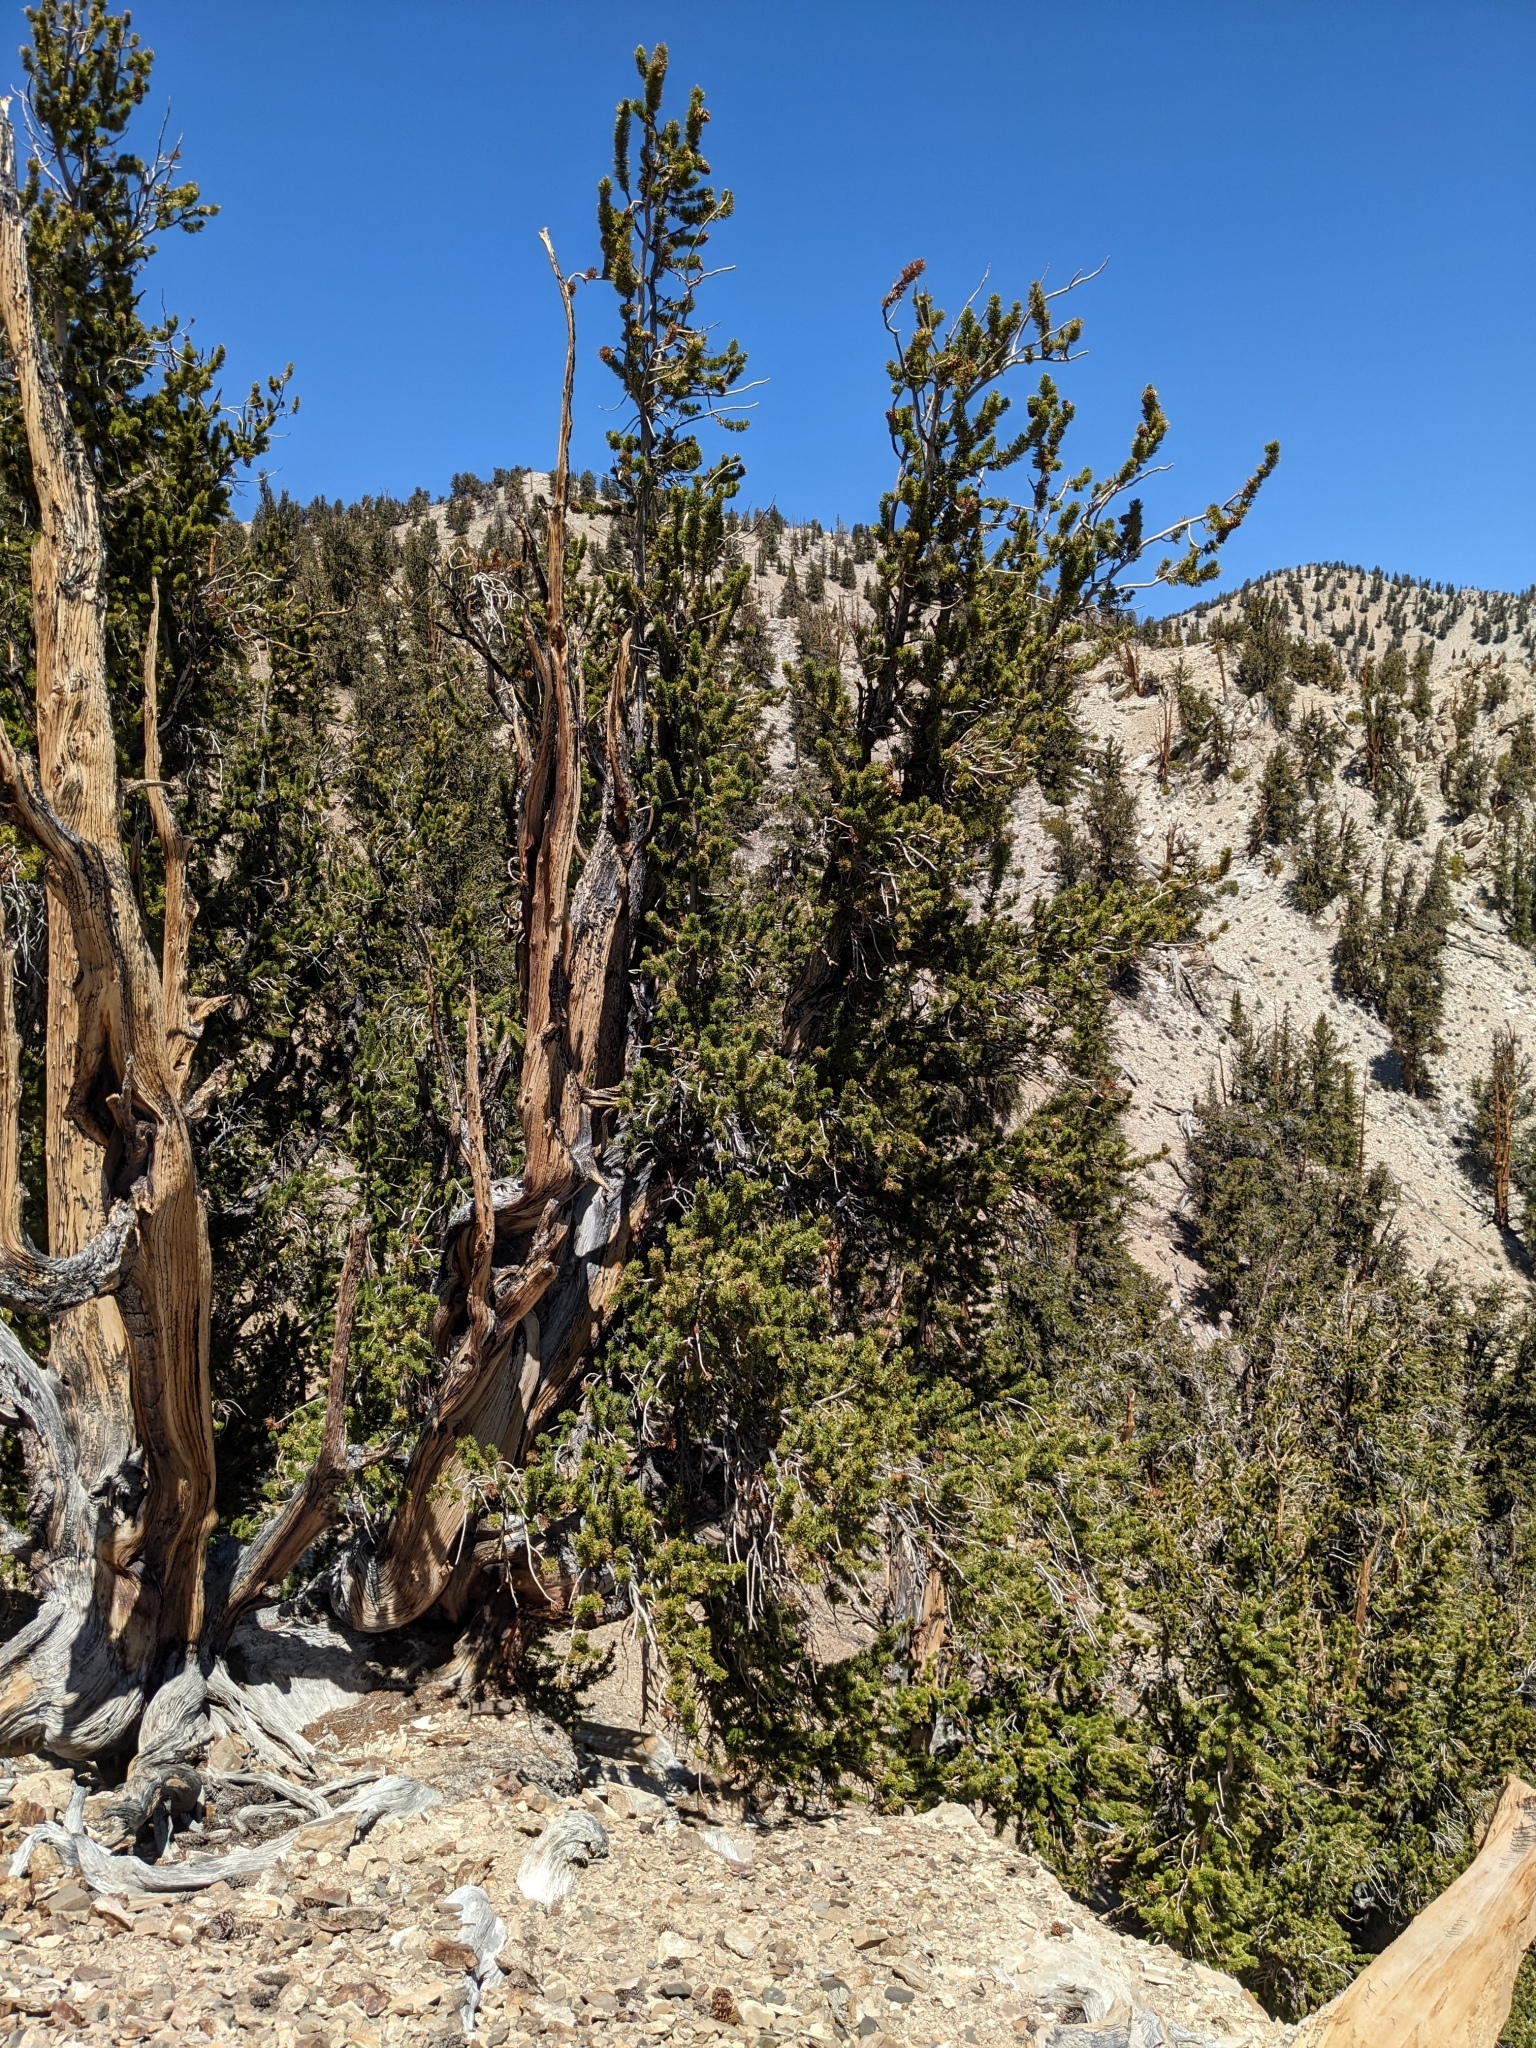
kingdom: Plantae
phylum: Tracheophyta
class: Pinopsida
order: Pinales
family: Pinaceae
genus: Pinus
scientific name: Pinus longaeva
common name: Intermountain bristlecone pine
